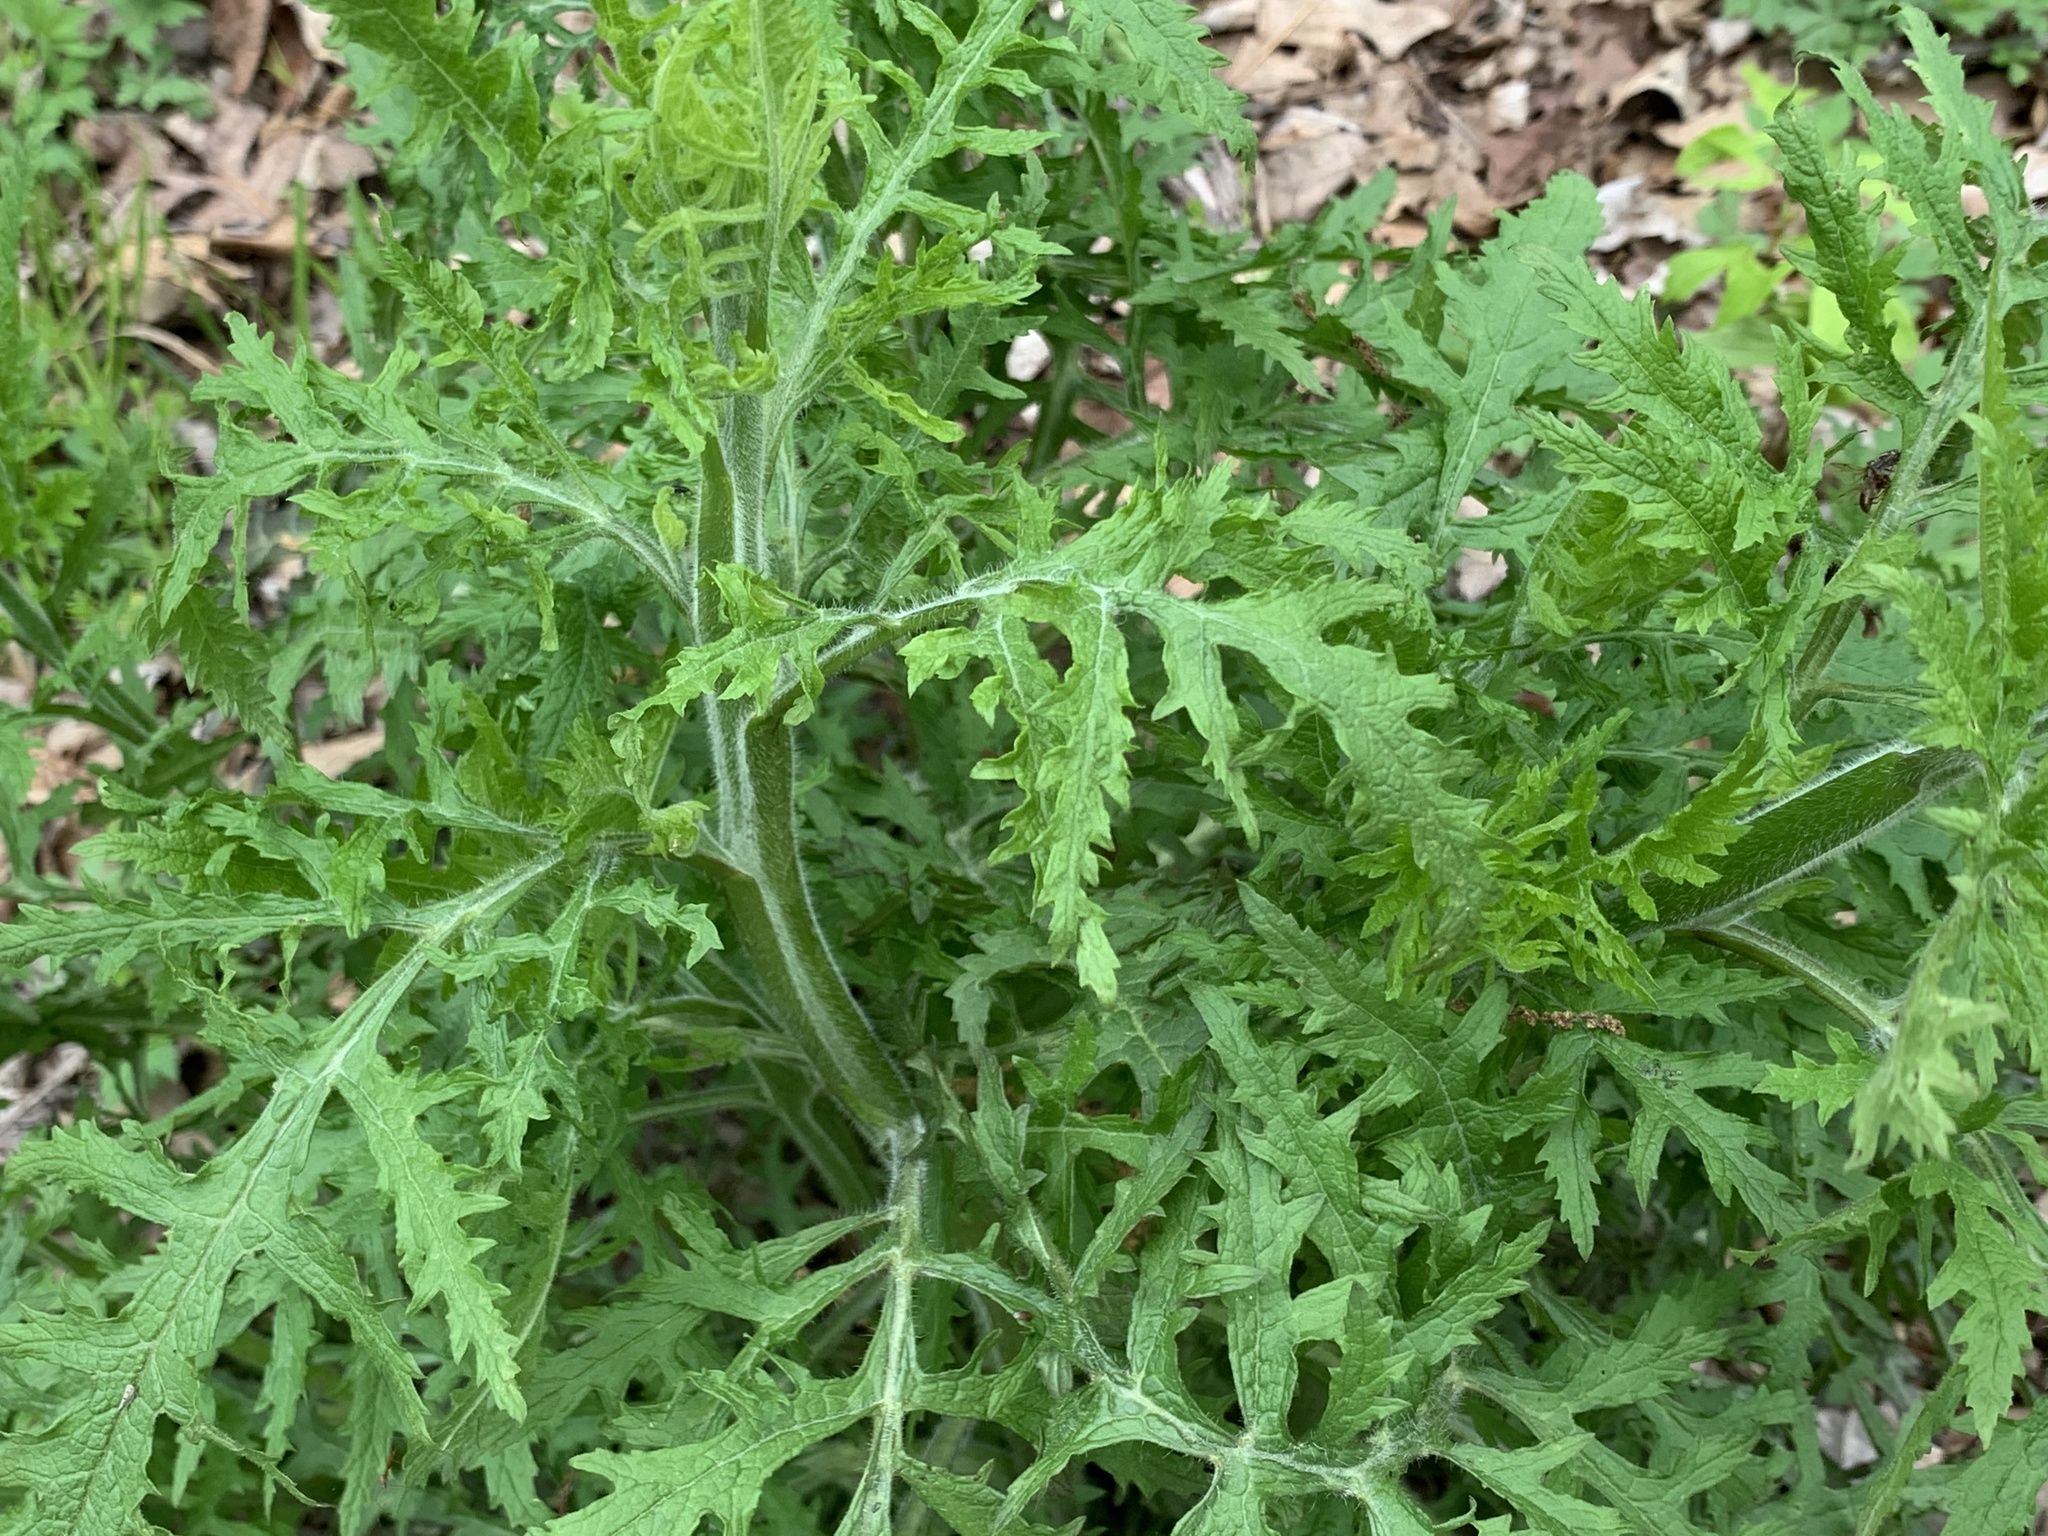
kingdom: Plantae
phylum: Tracheophyta
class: Magnoliopsida
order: Lamiales
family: Orobanchaceae
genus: Aureolaria
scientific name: Aureolaria grandiflora
